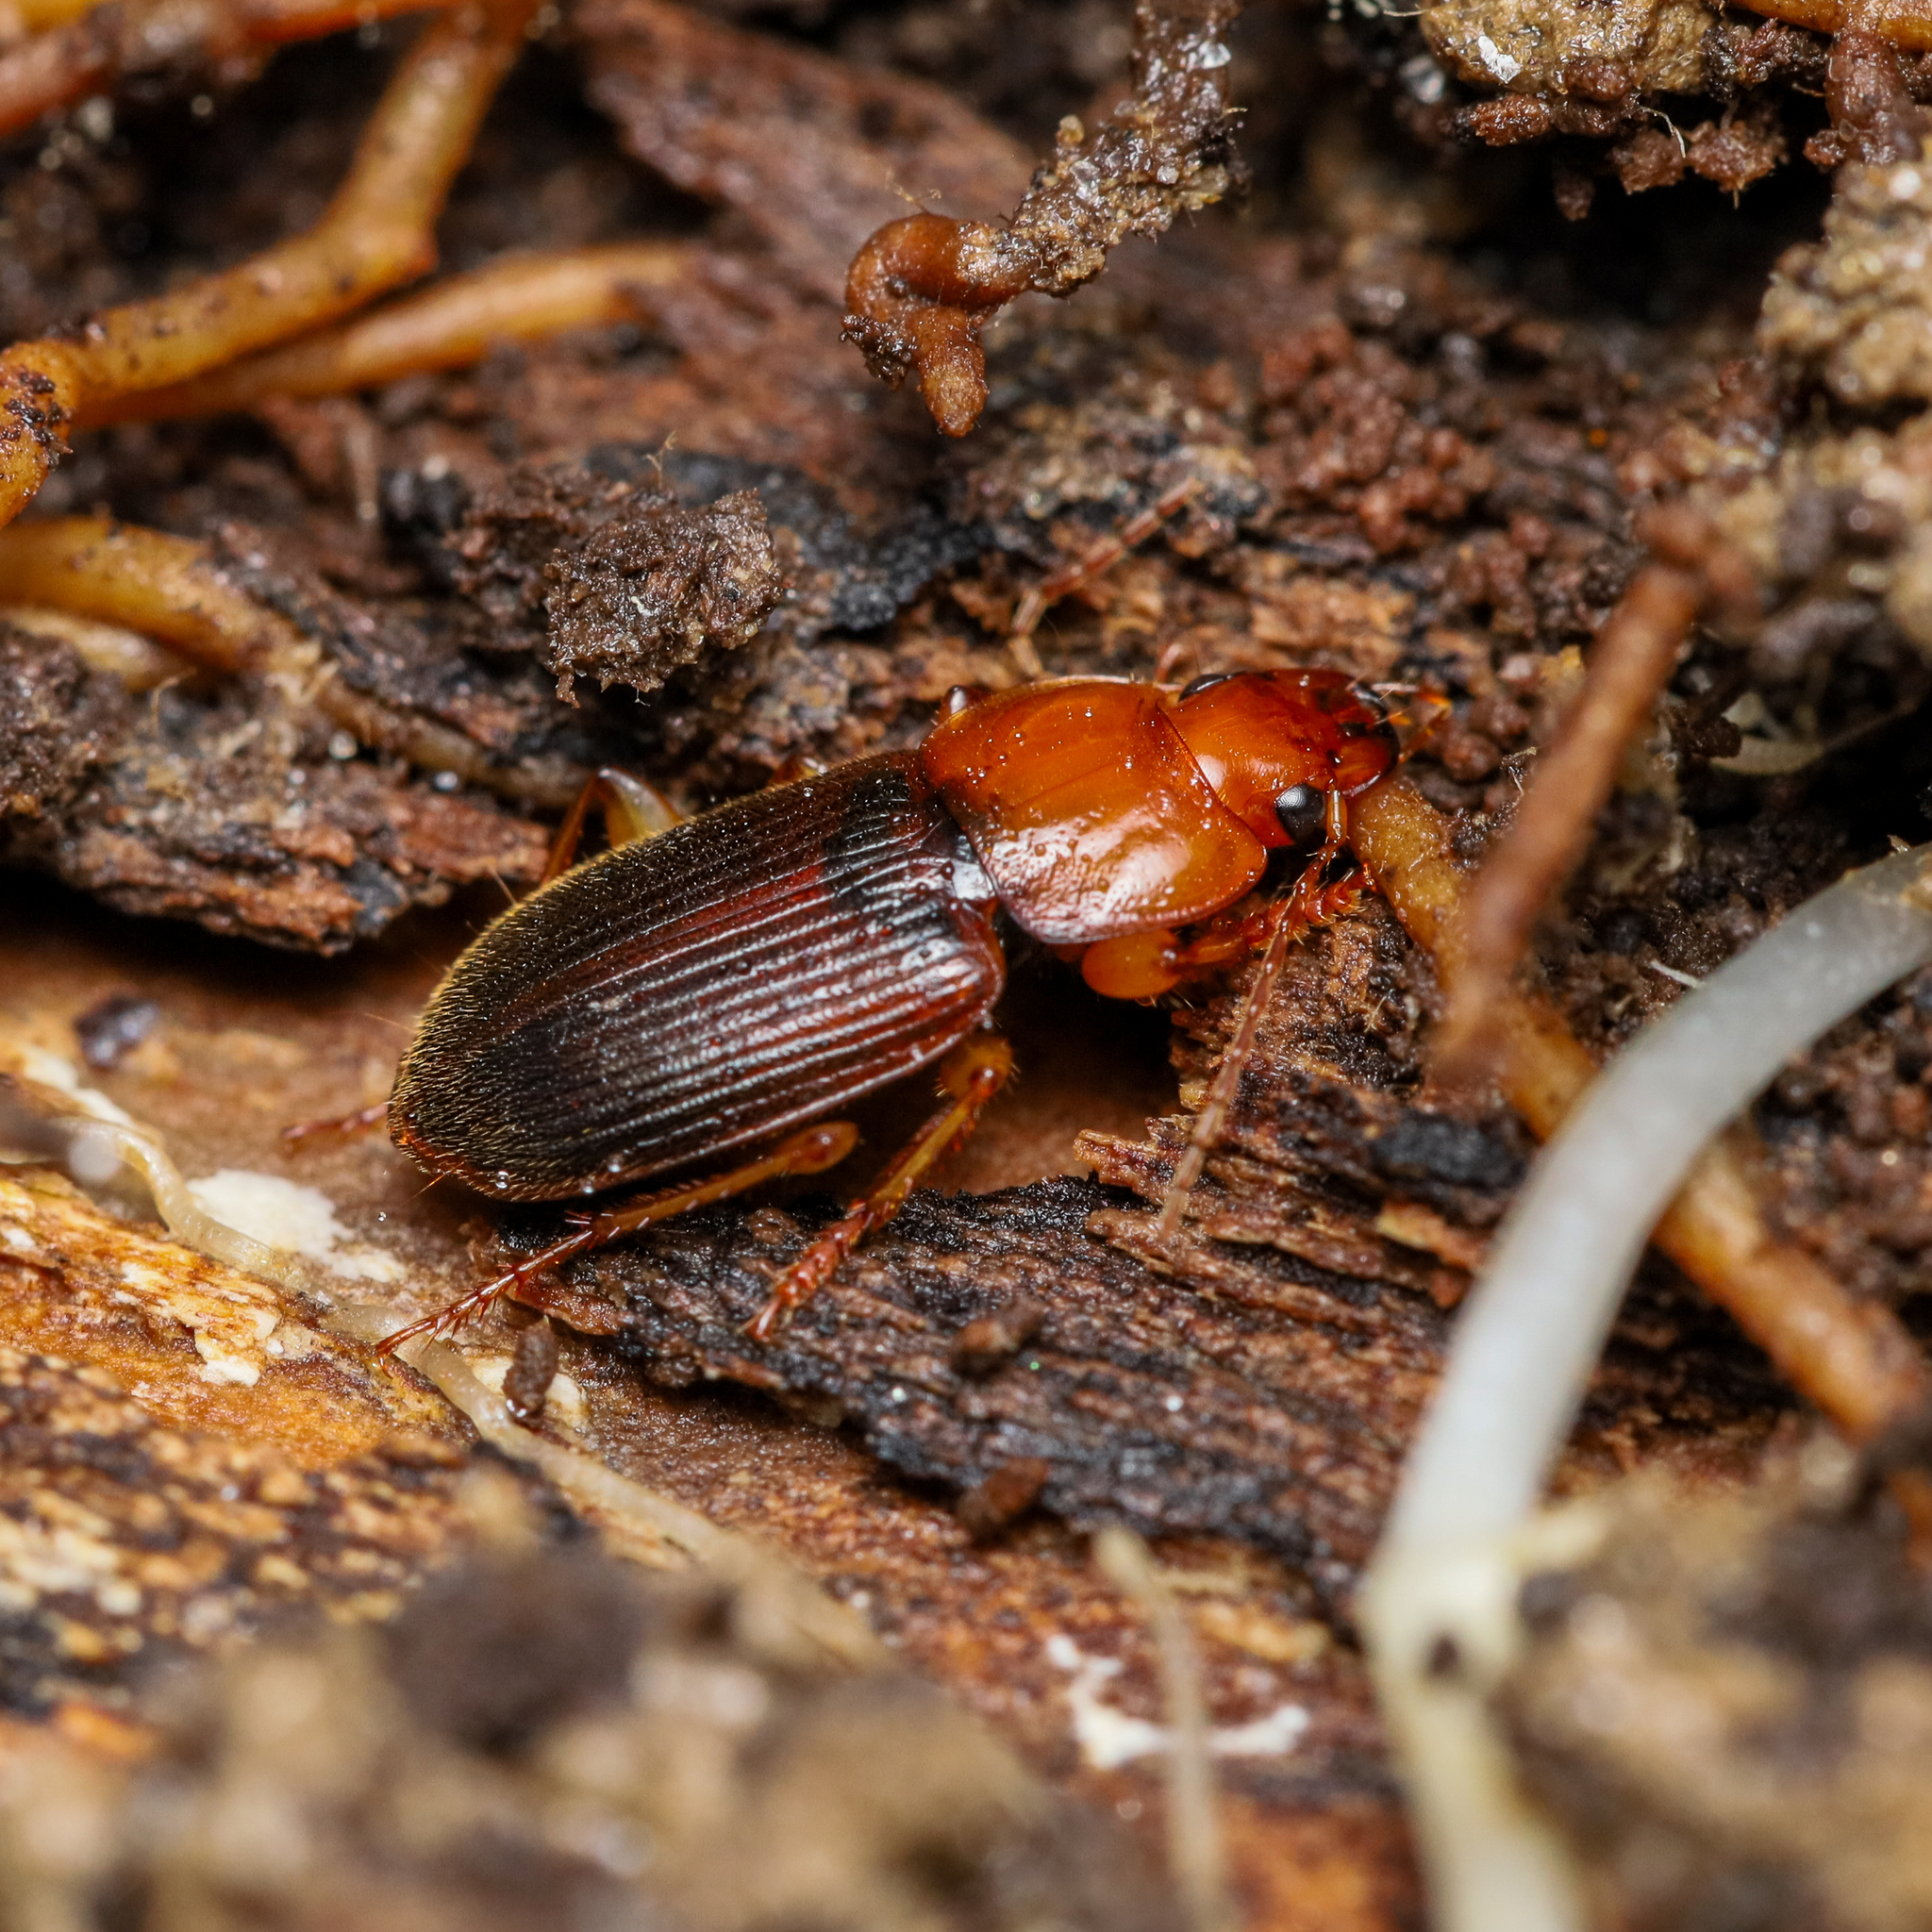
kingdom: Animalia
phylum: Arthropoda
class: Insecta
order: Coleoptera
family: Carabidae
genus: Amphasia
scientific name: Amphasia interstitialis
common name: Red-headed ground beetle
